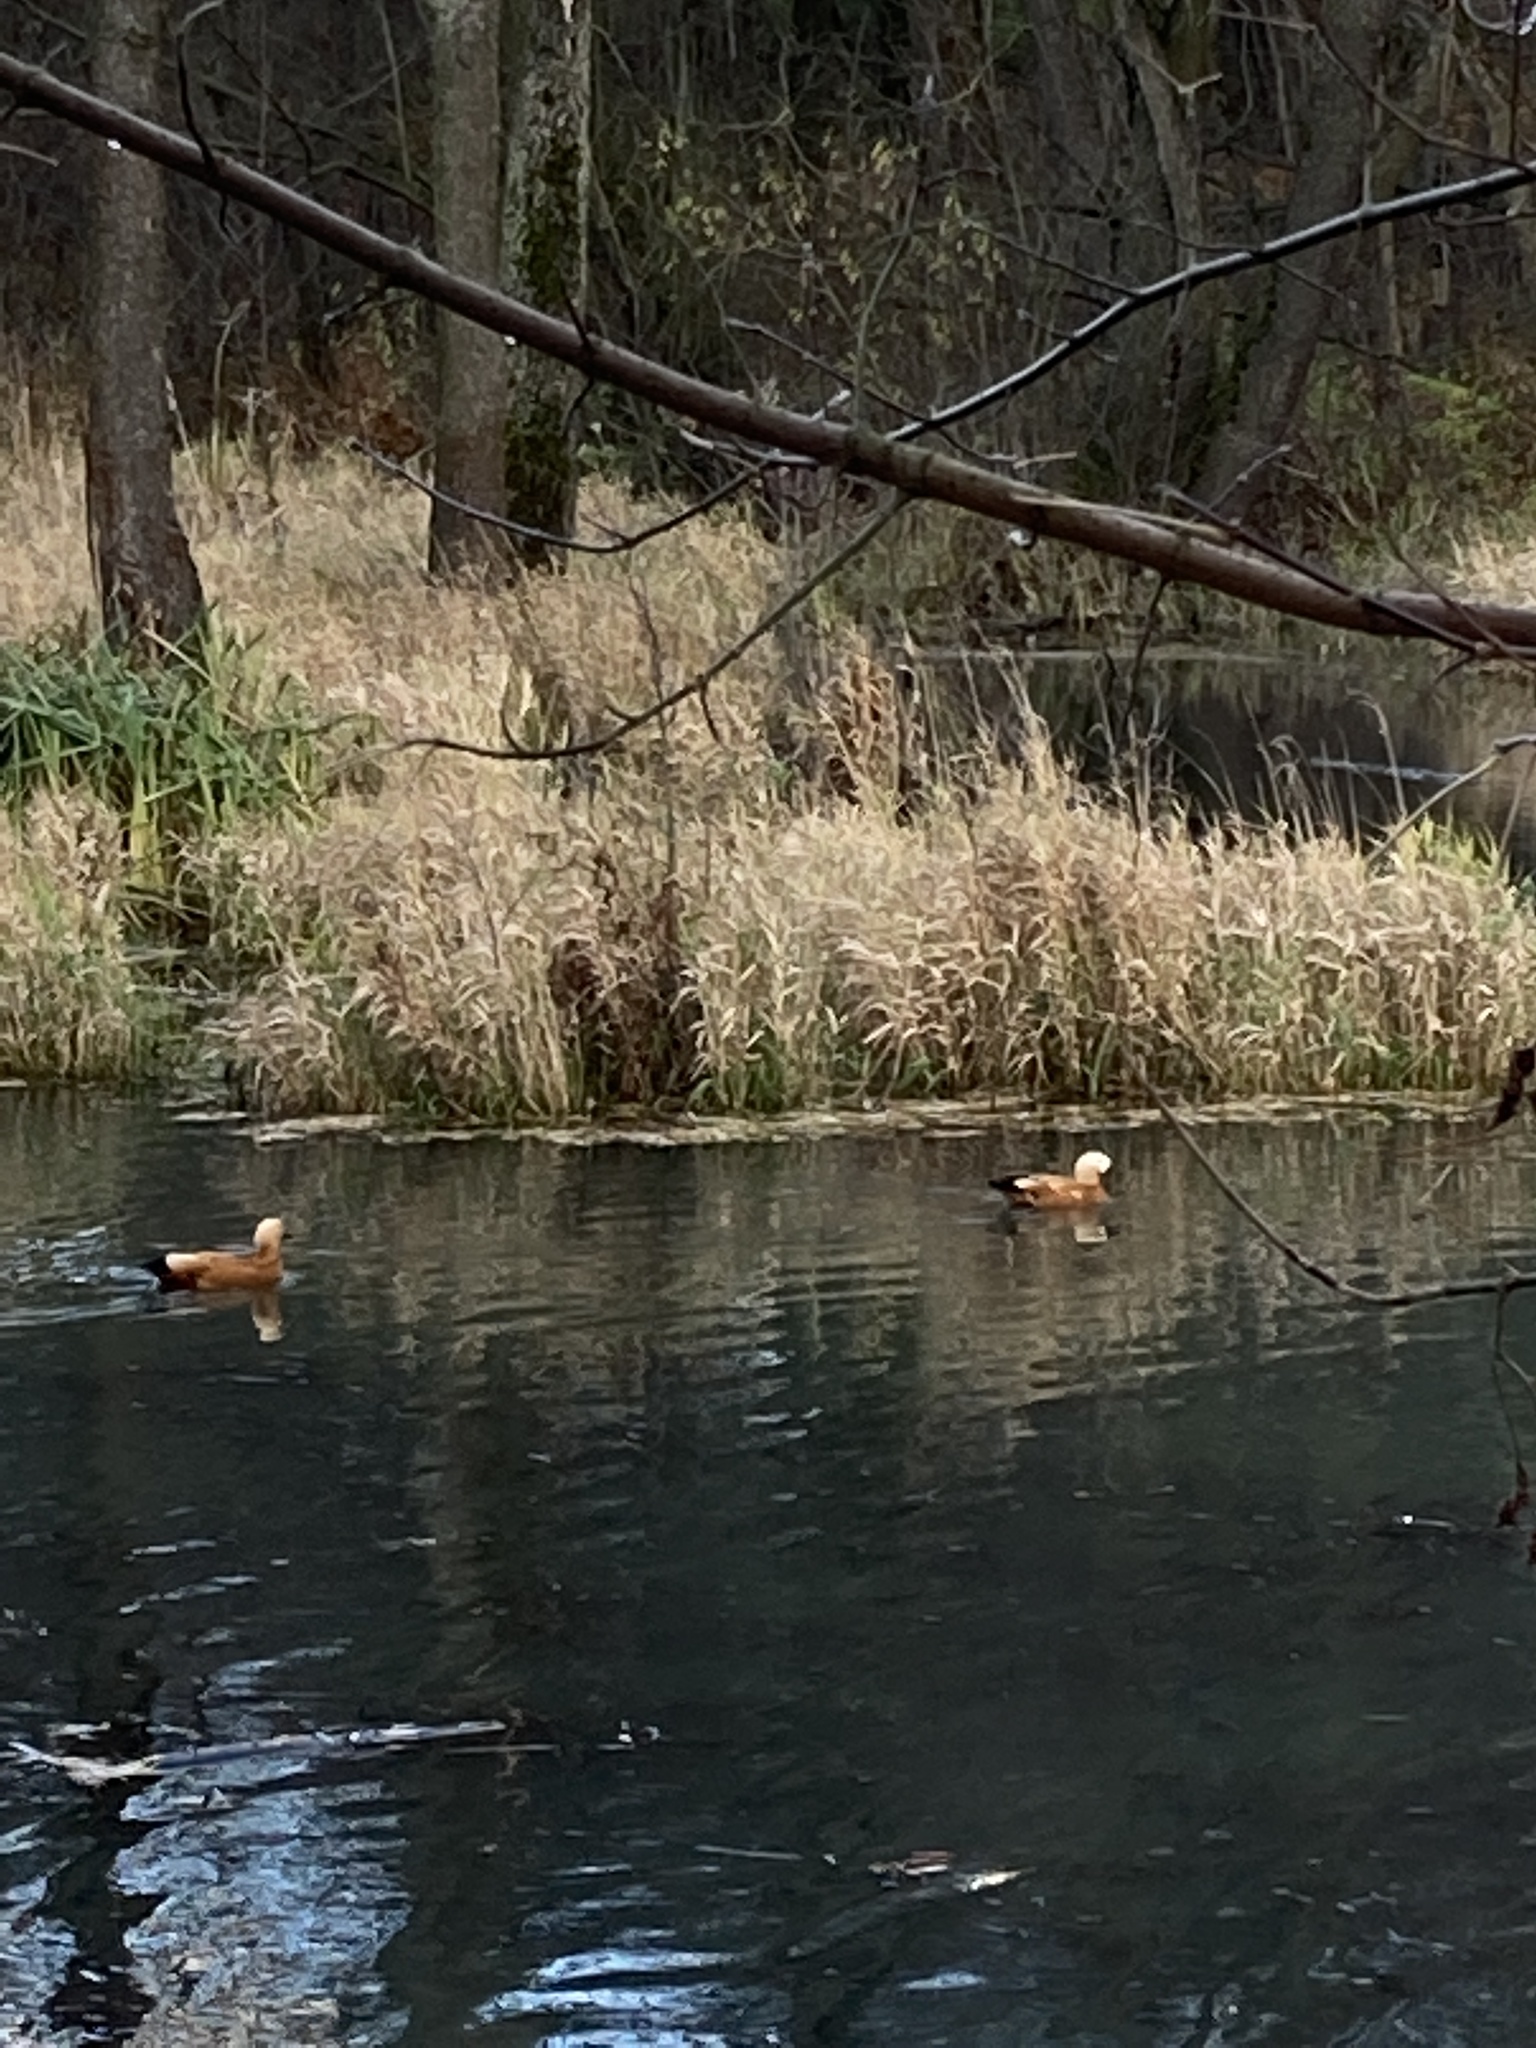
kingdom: Animalia
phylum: Chordata
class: Aves
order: Anseriformes
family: Anatidae
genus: Tadorna
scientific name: Tadorna ferruginea
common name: Ruddy shelduck
